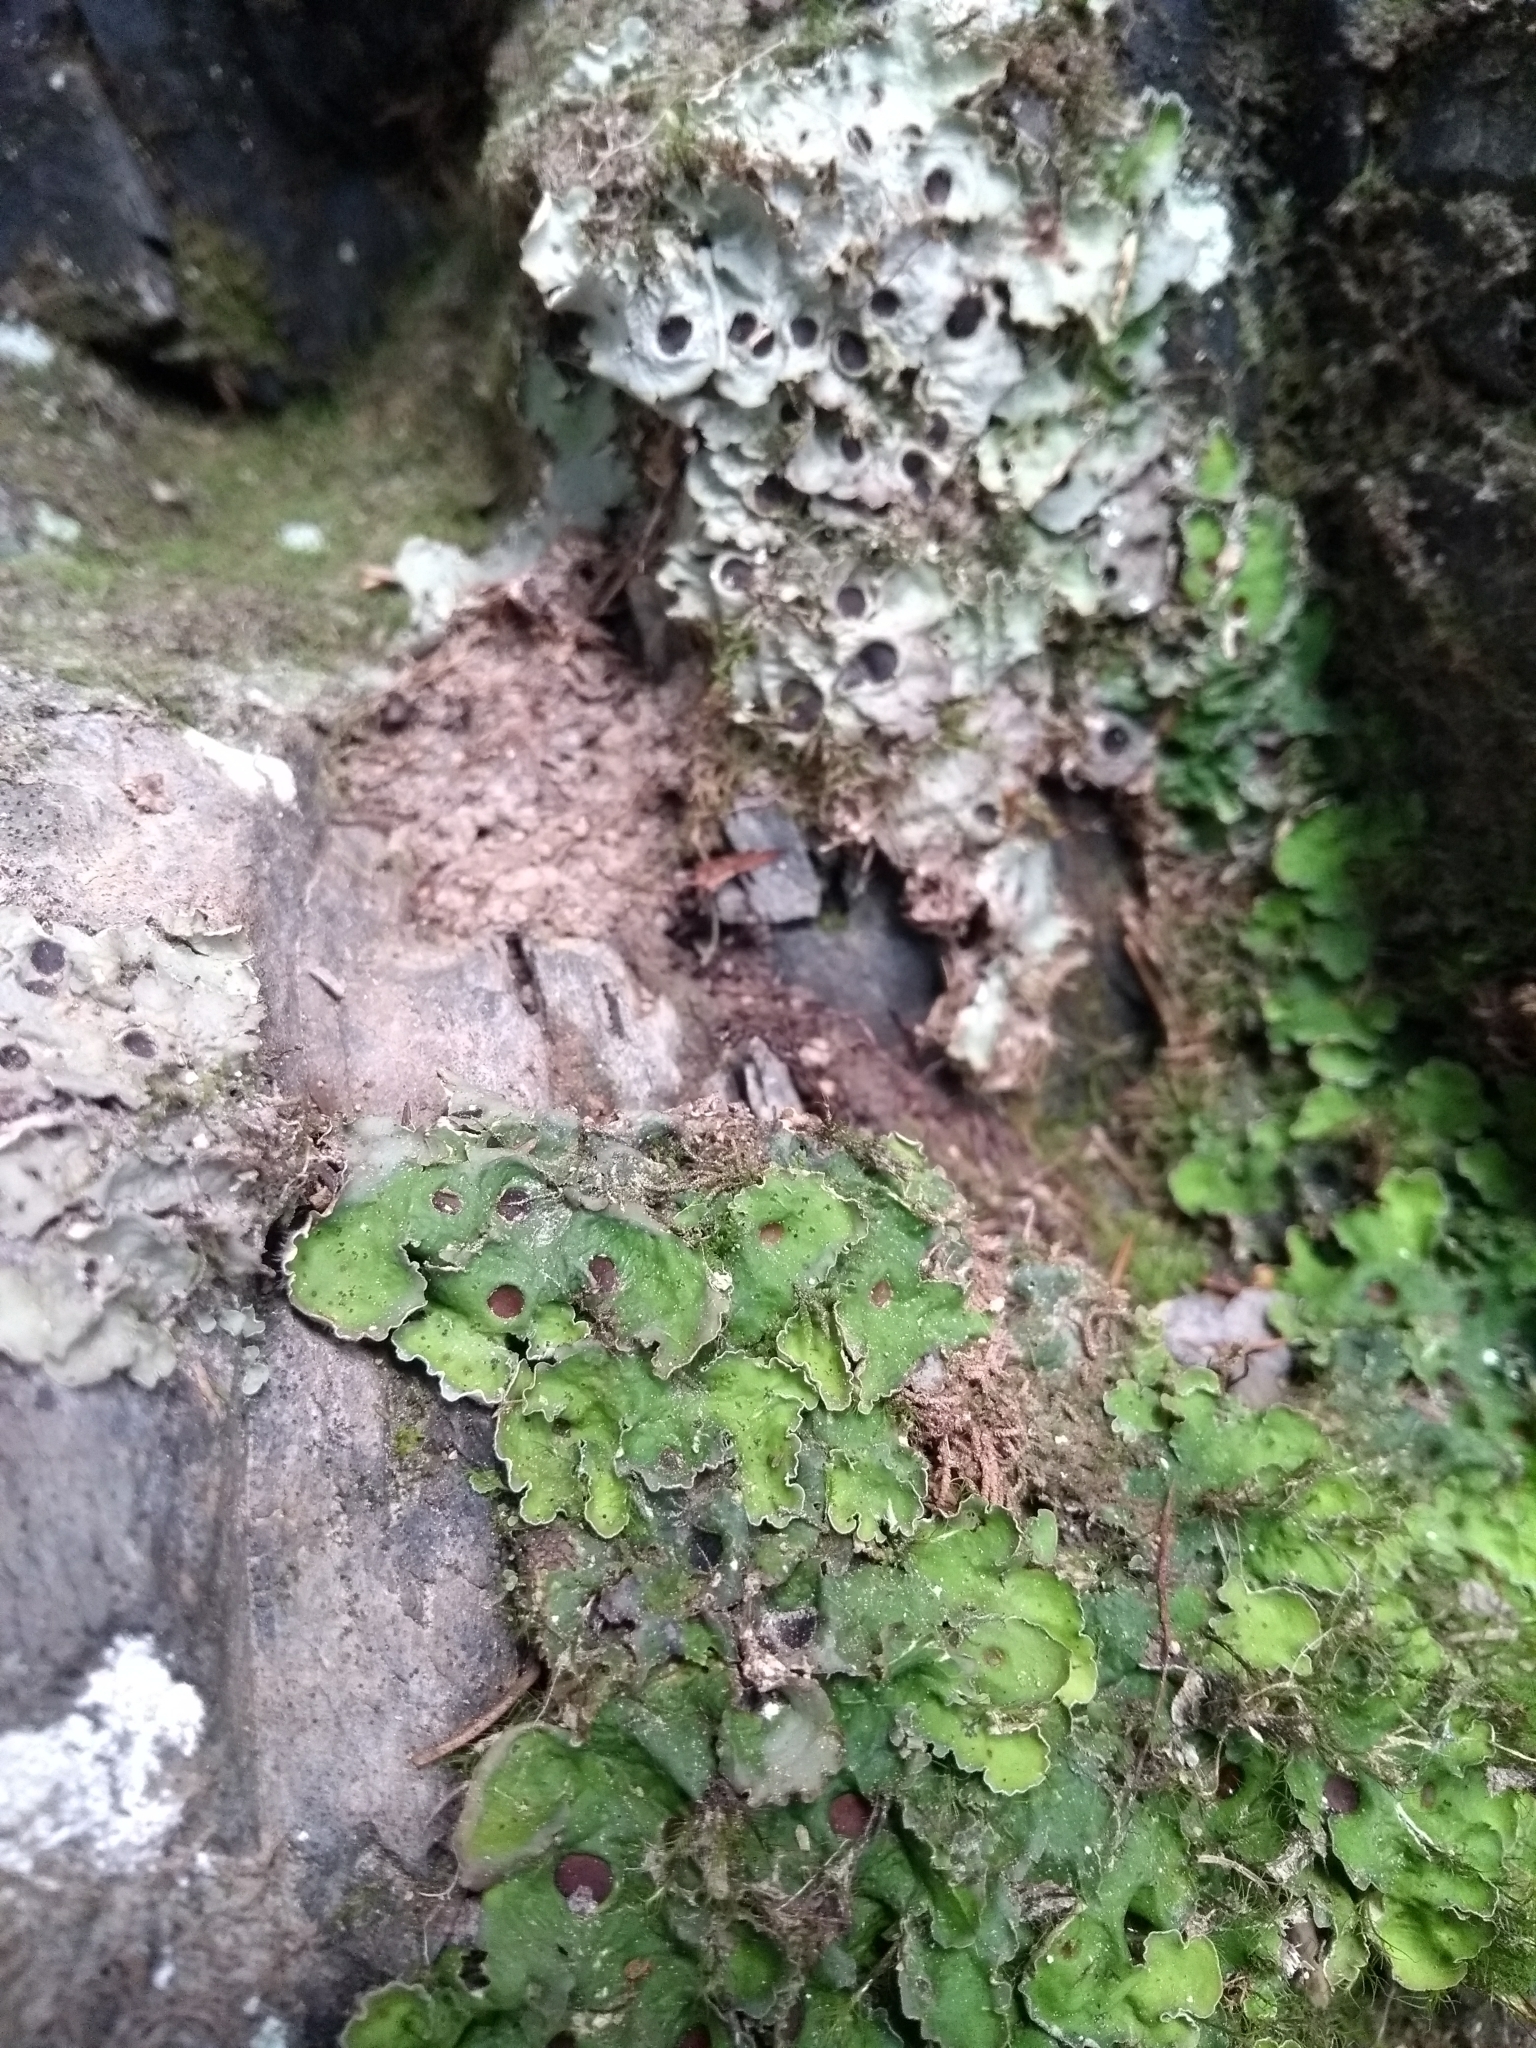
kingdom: Fungi
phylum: Ascomycota
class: Lecanoromycetes
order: Peltigerales
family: Peltigeraceae
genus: Solorina
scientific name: Solorina saccata
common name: Common chocolate chip lichen
